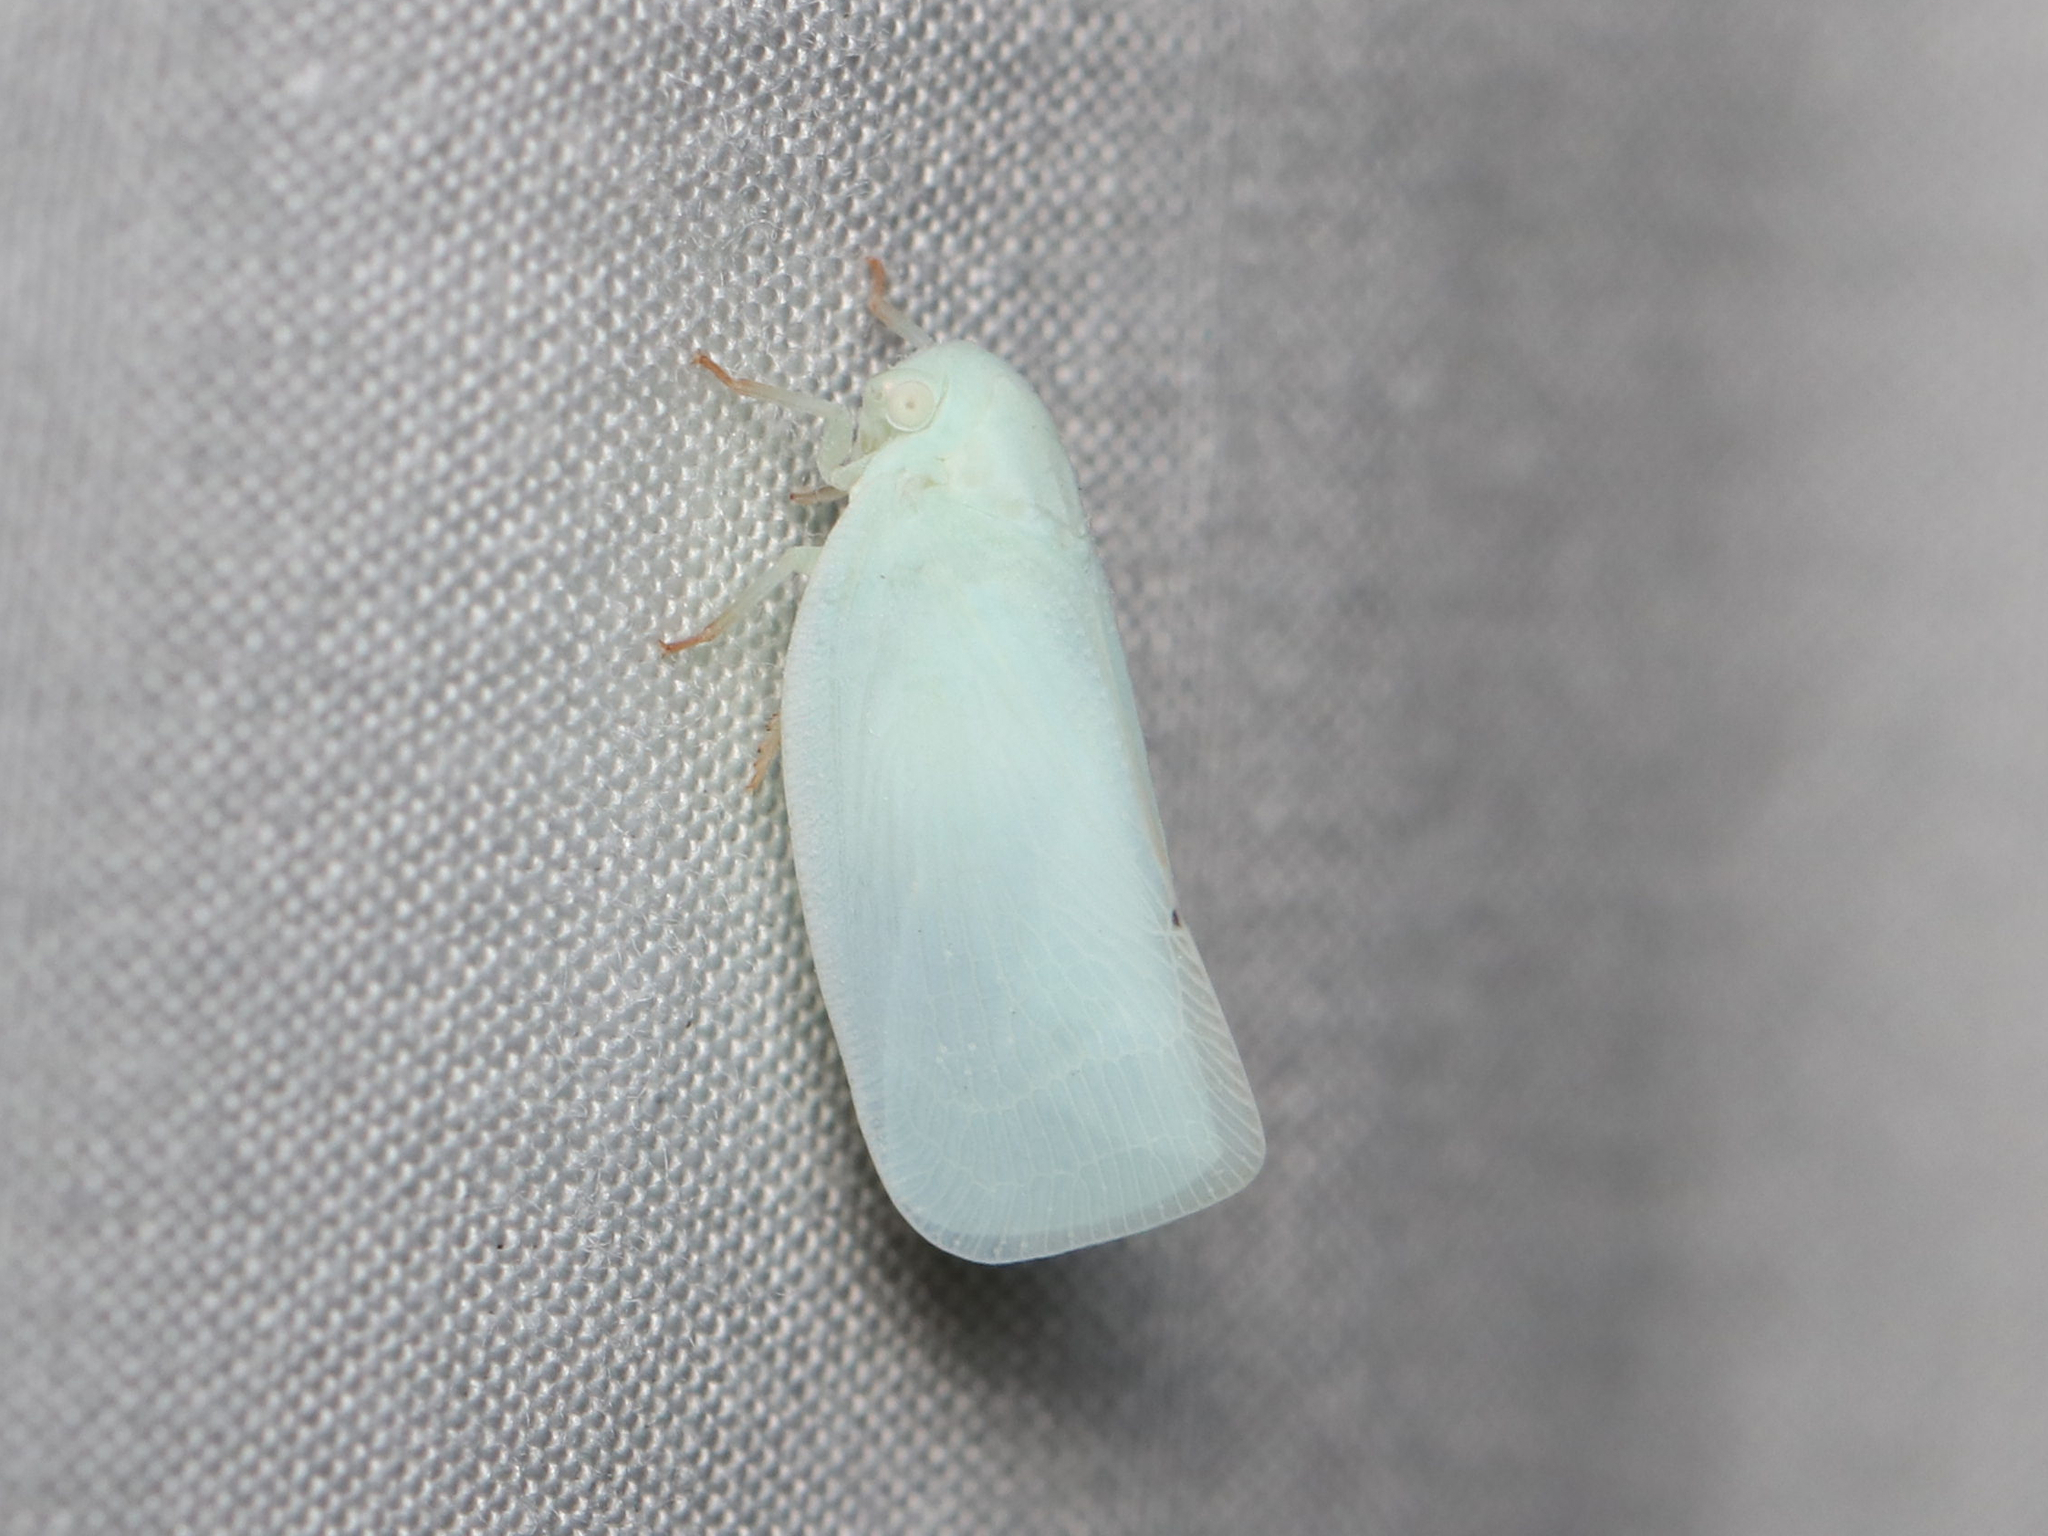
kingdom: Animalia
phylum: Arthropoda
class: Insecta
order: Hemiptera
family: Flatidae
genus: Flatormenis
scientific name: Flatormenis proxima
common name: Northern flatid planthopper
